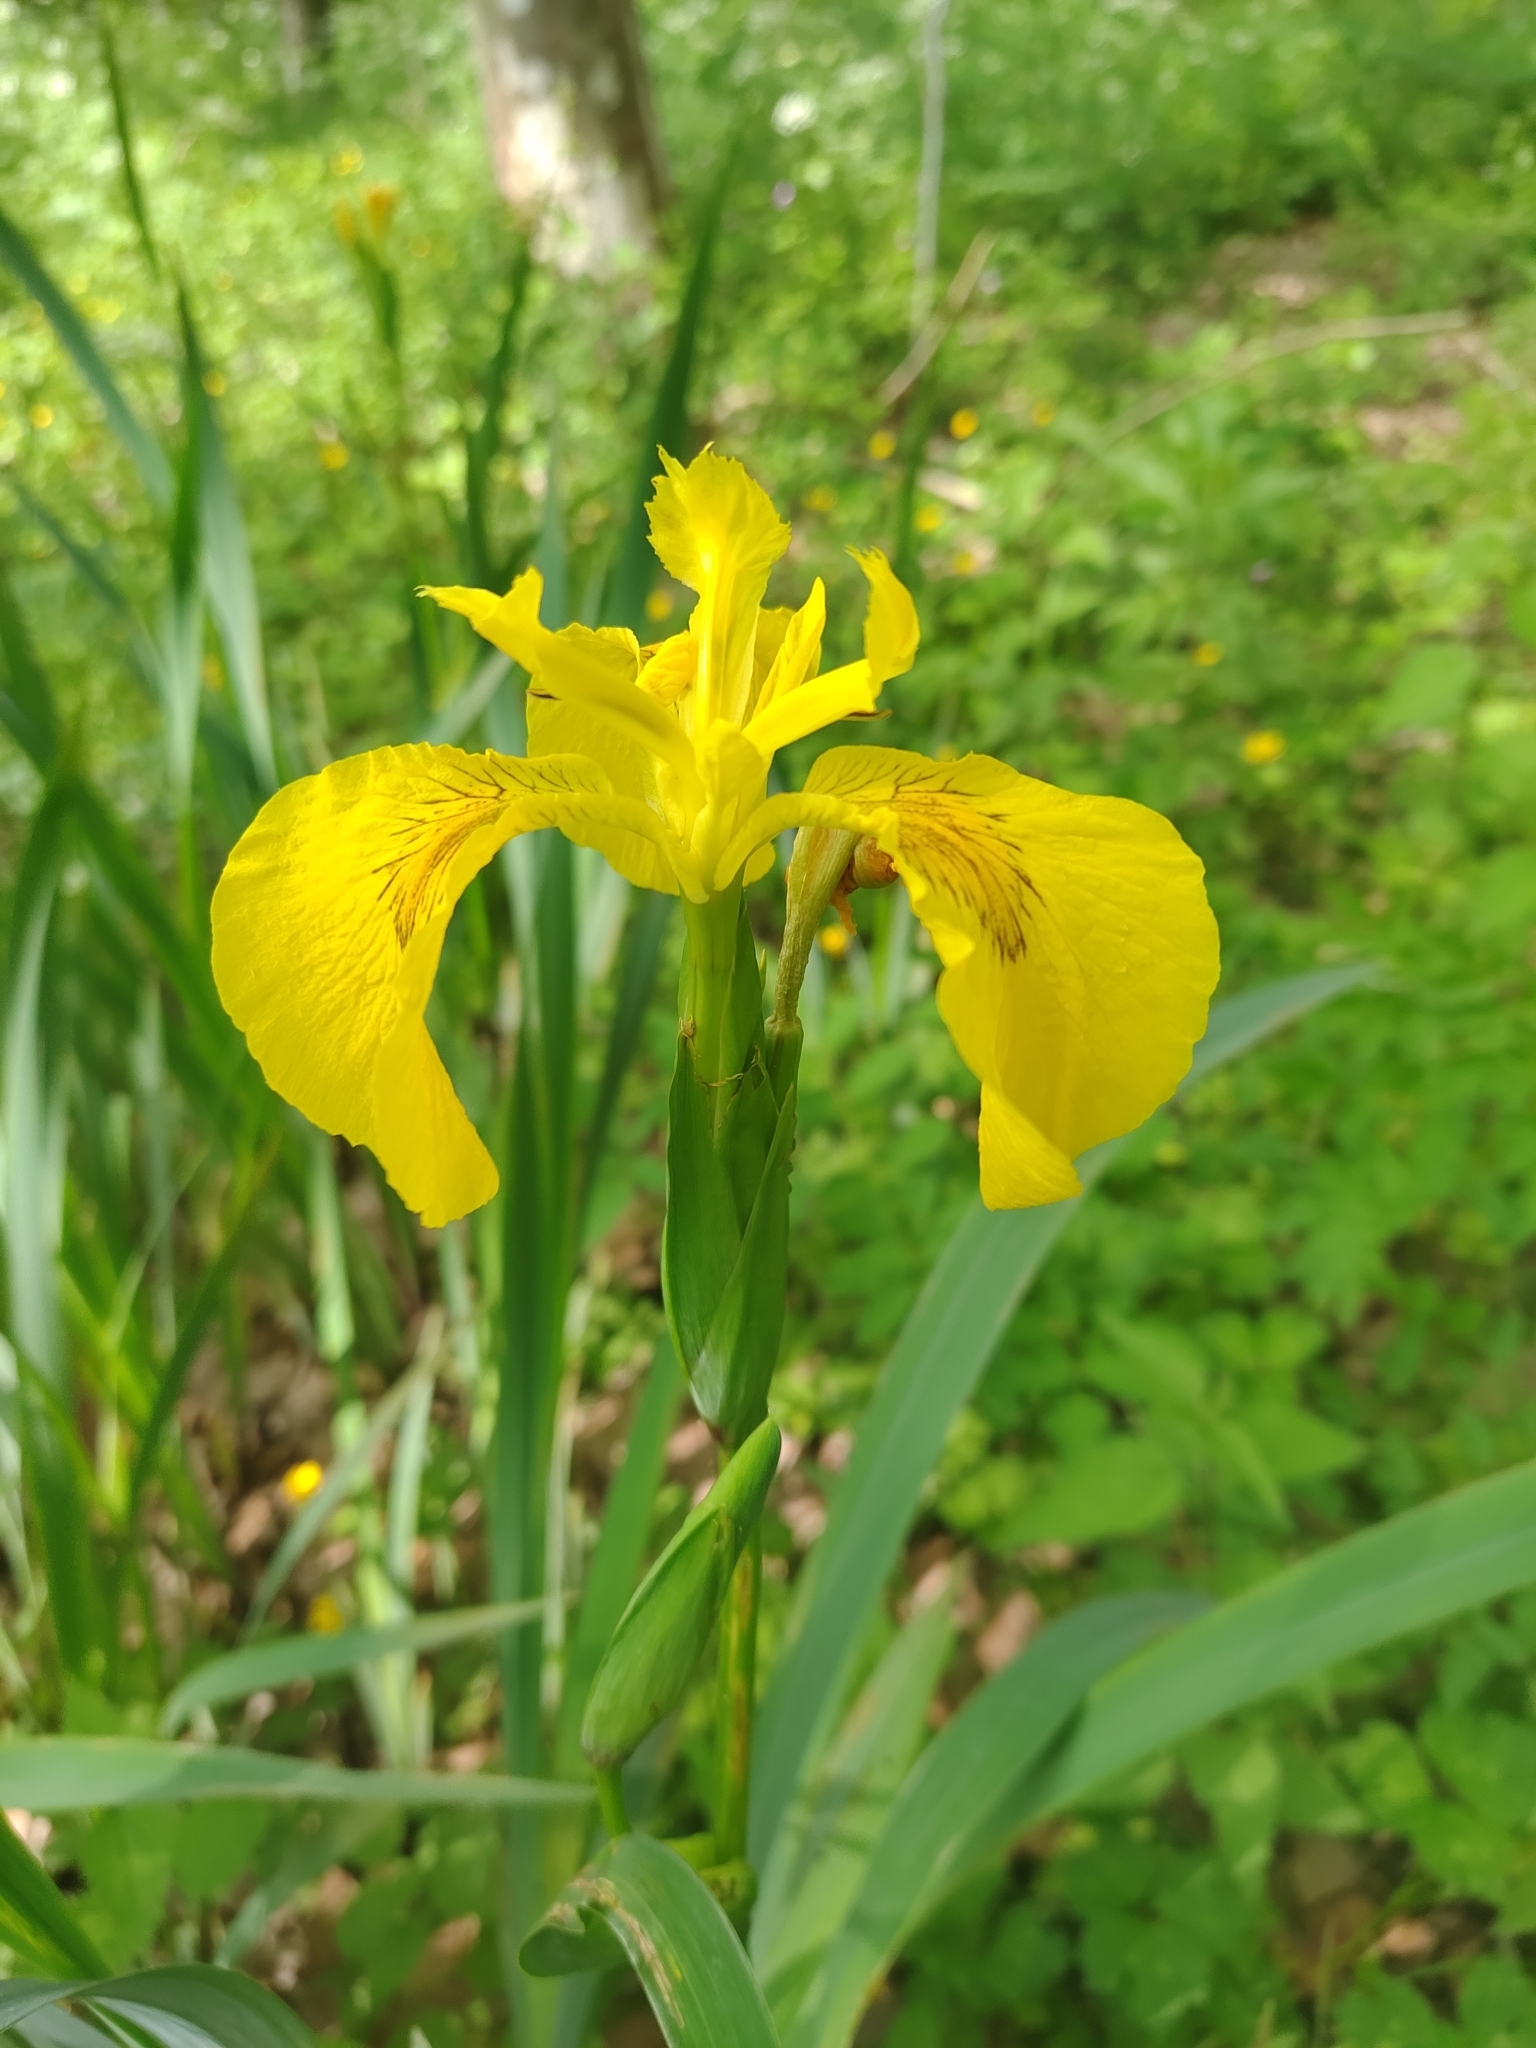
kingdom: Plantae
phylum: Tracheophyta
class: Liliopsida
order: Asparagales
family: Iridaceae
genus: Iris
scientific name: Iris pseudacorus
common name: Yellow flag
